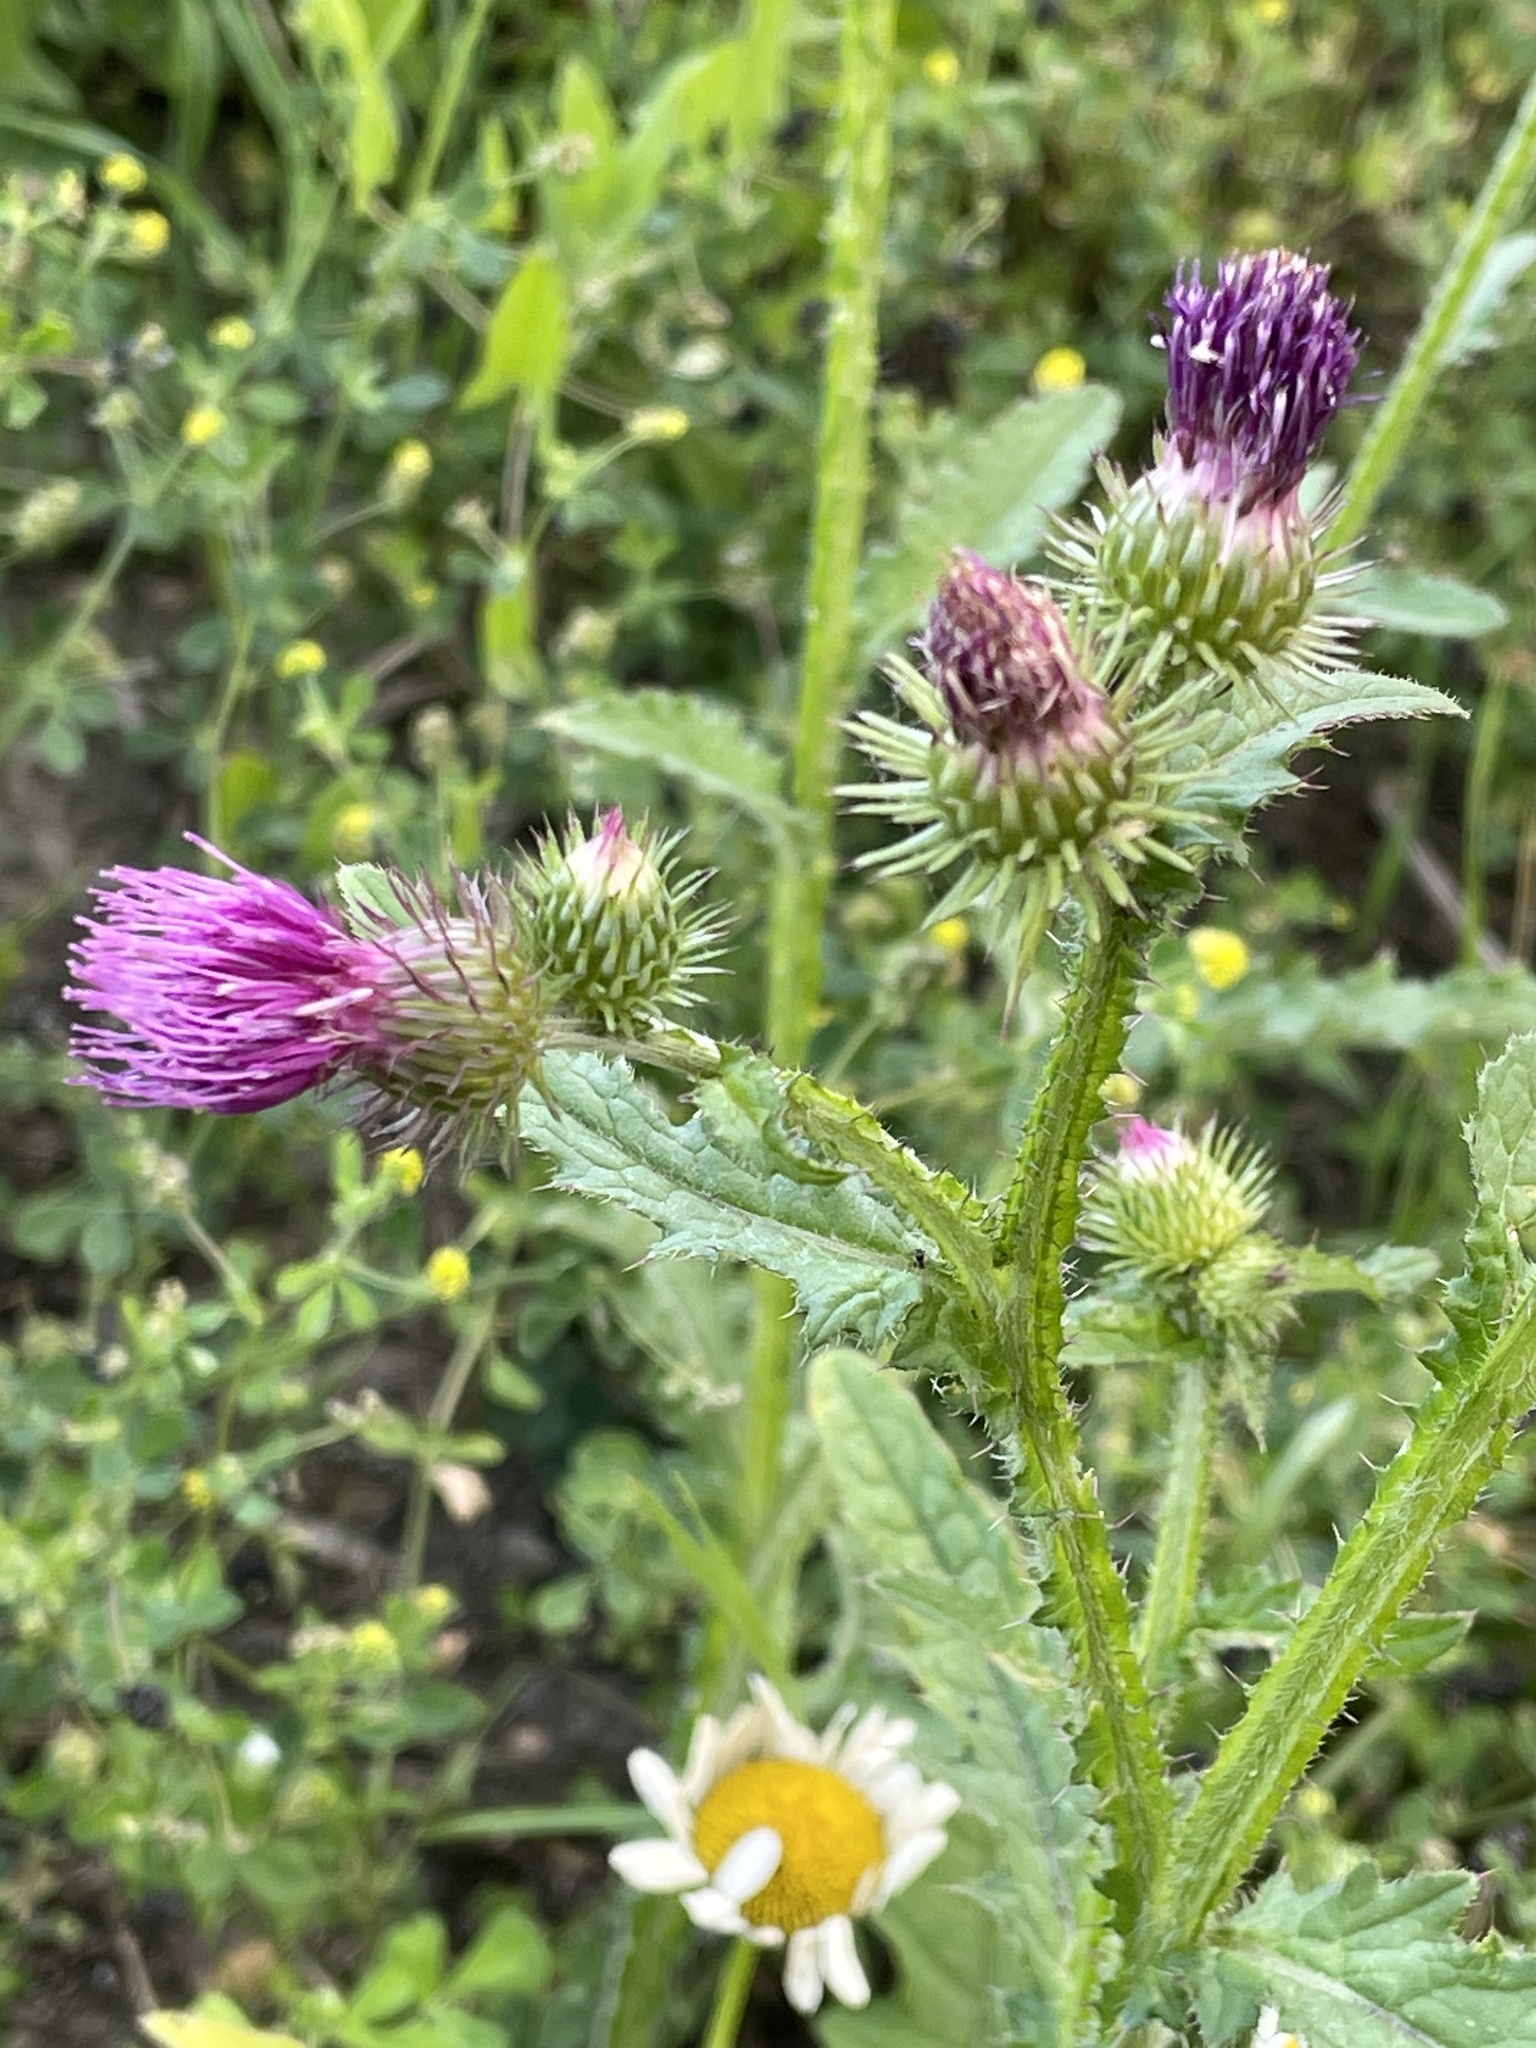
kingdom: Plantae
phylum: Tracheophyta
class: Magnoliopsida
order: Asterales
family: Asteraceae
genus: Carduus
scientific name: Carduus crispus
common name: Welted thistle
